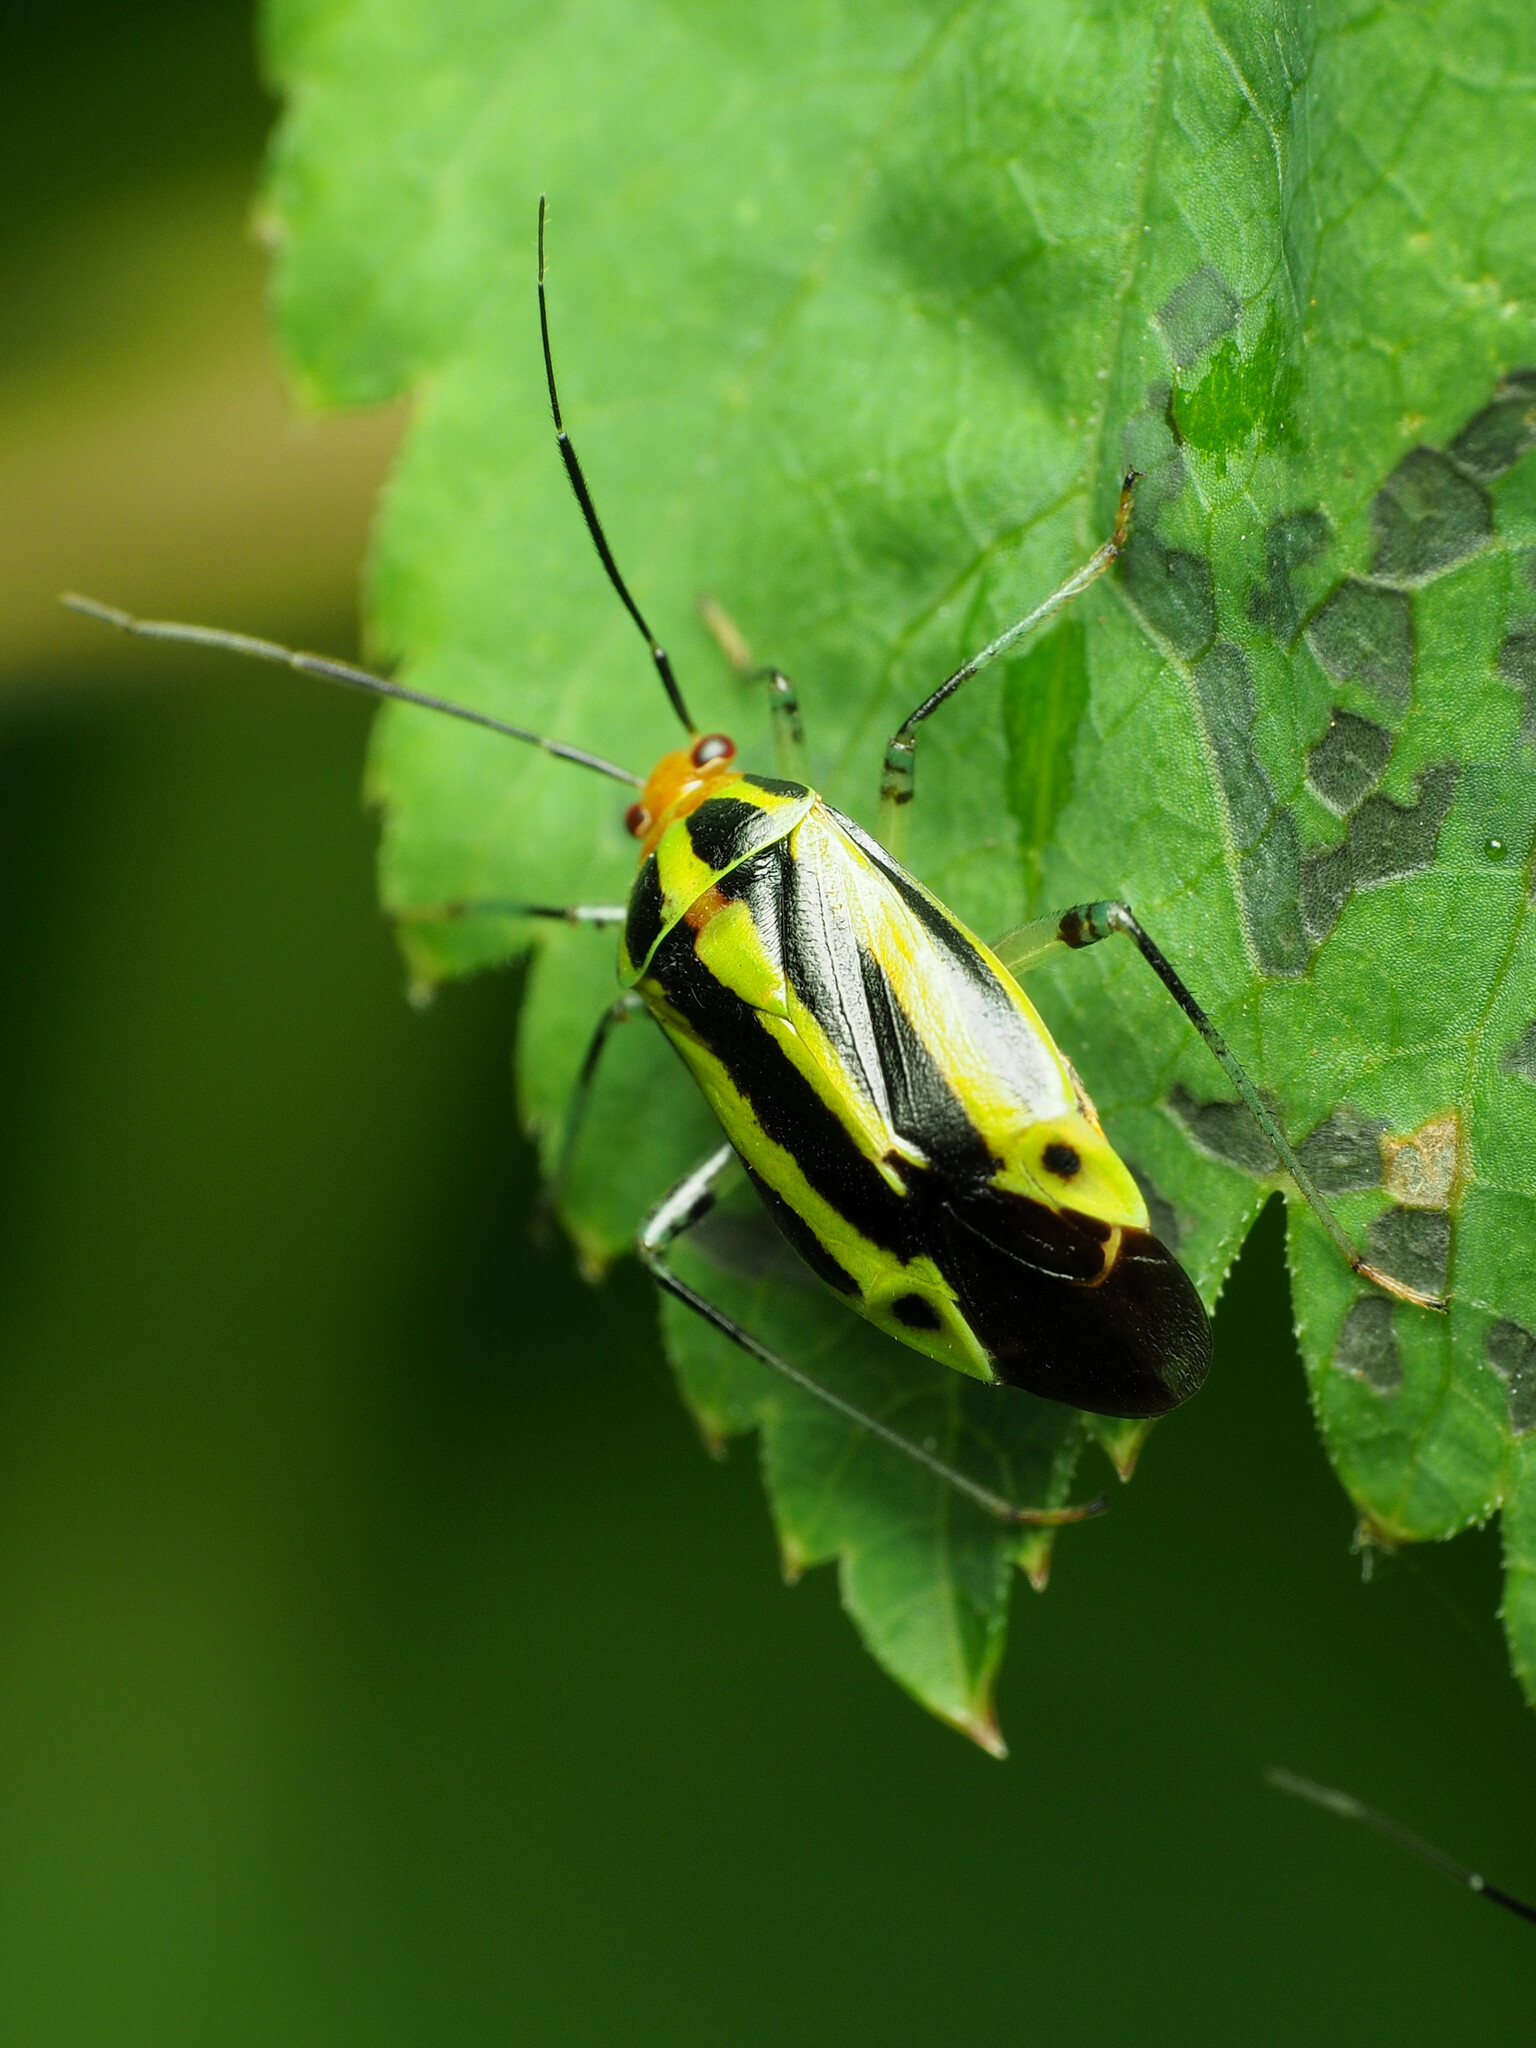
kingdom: Animalia
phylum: Arthropoda
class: Insecta
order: Hemiptera
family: Miridae
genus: Poecilocapsus
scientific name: Poecilocapsus lineatus
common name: Four-lined plant bug
